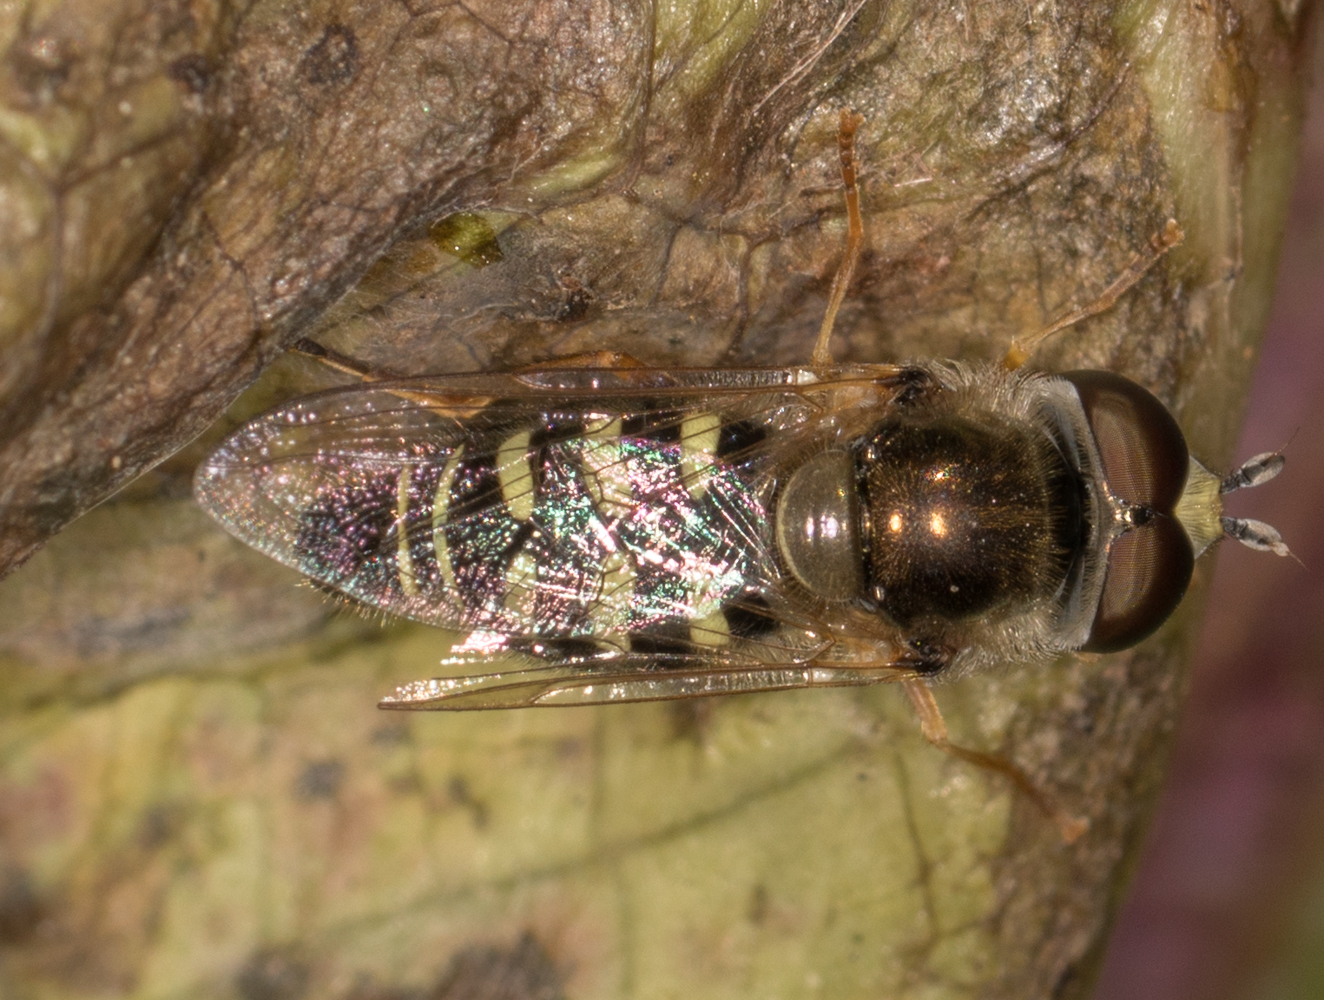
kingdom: Animalia
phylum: Arthropoda
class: Insecta
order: Diptera
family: Syrphidae
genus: Eupeodes
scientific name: Eupeodes volucris
